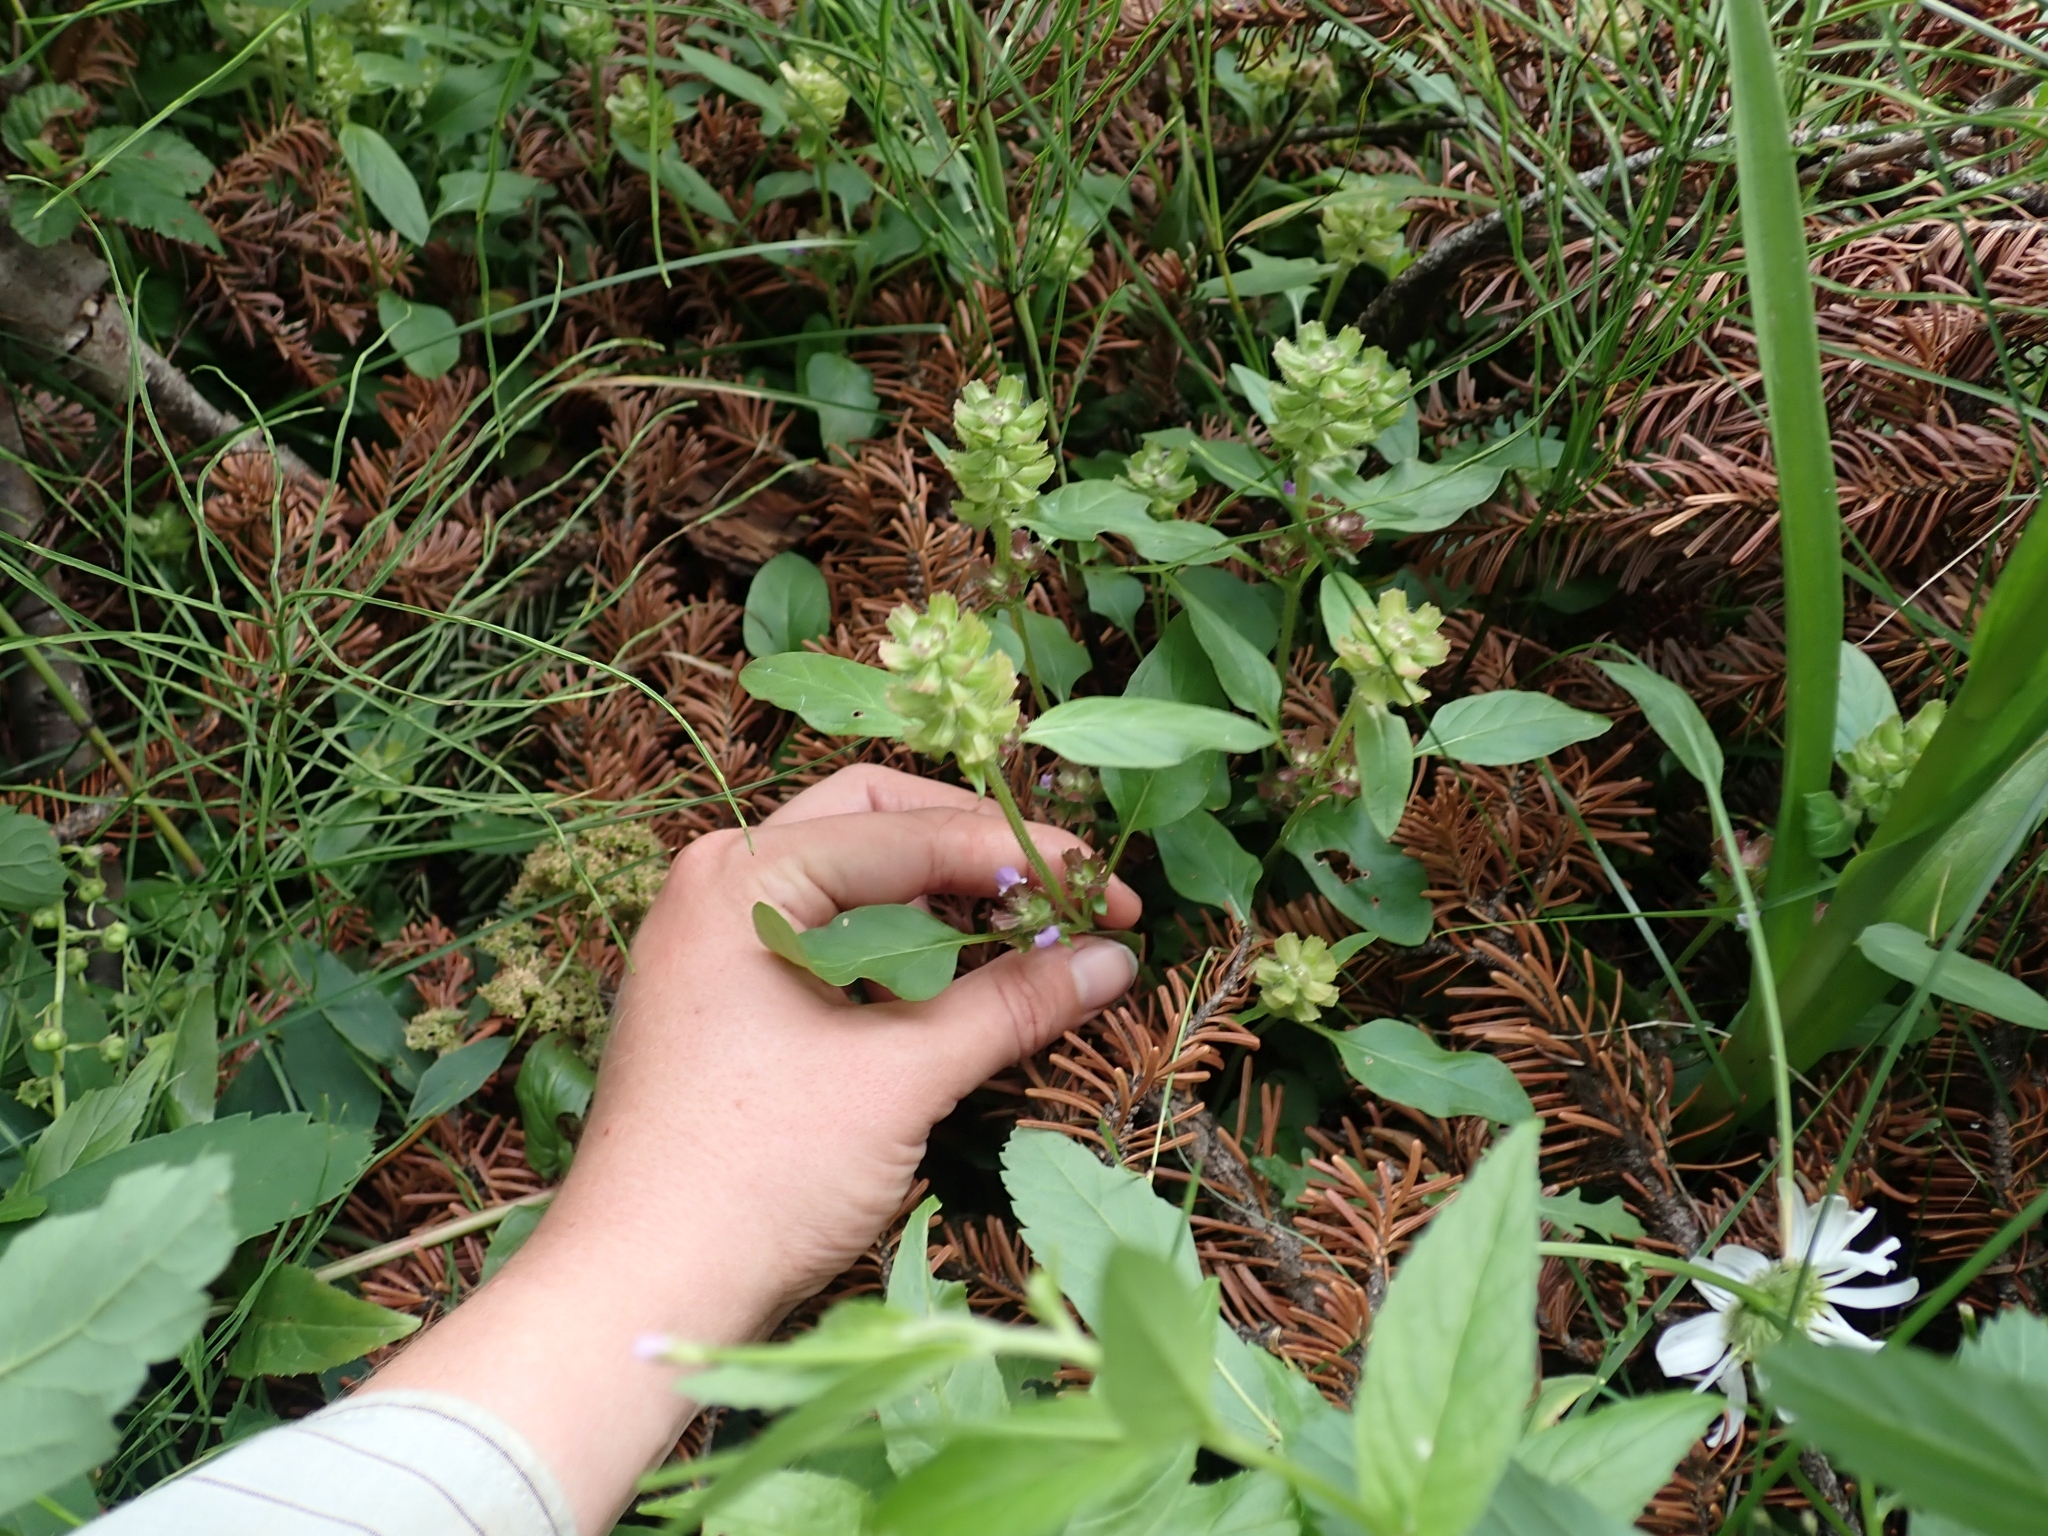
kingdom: Plantae
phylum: Tracheophyta
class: Magnoliopsida
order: Lamiales
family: Lamiaceae
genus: Prunella
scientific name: Prunella vulgaris
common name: Heal-all
